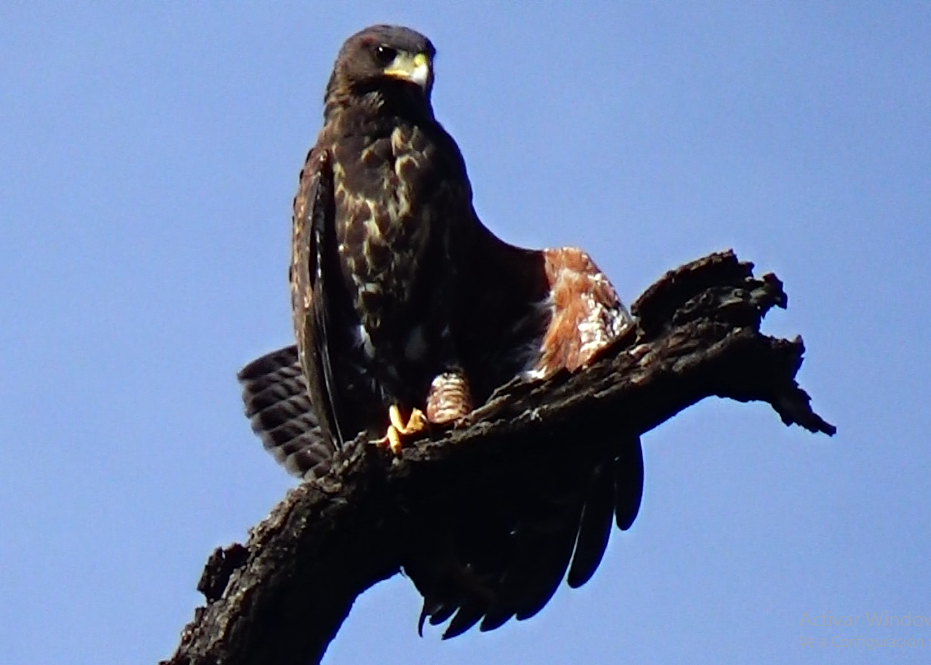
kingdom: Animalia
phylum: Chordata
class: Aves
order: Accipitriformes
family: Accipitridae
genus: Parabuteo
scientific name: Parabuteo unicinctus
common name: Harris's hawk
